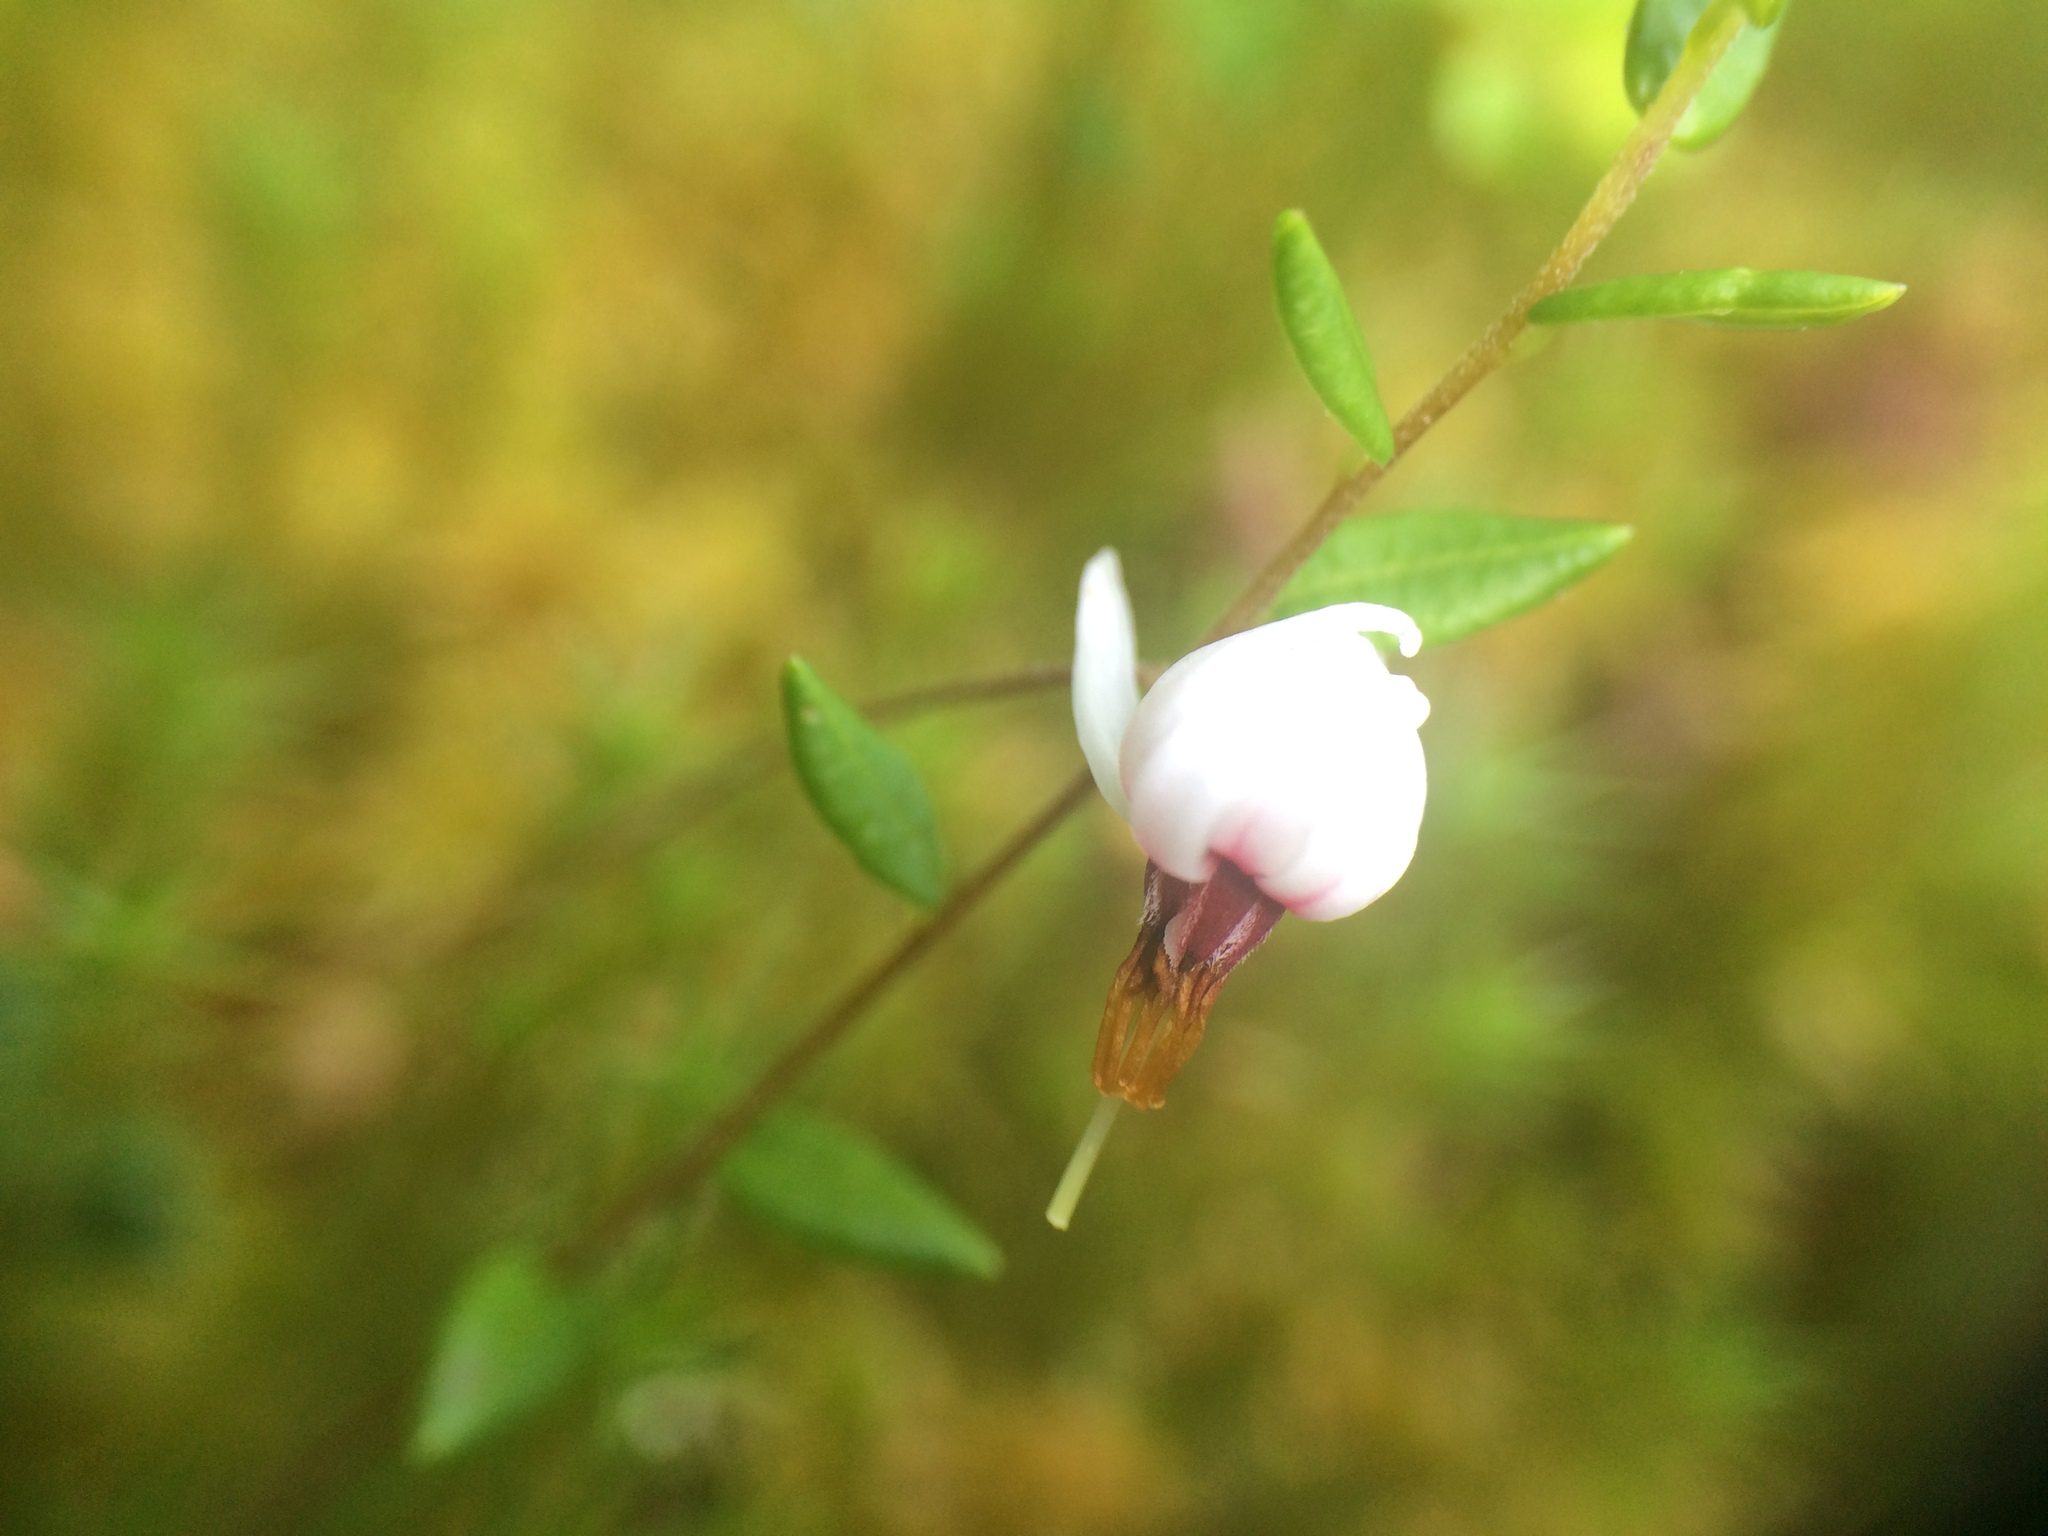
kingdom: Plantae
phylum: Tracheophyta
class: Magnoliopsida
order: Ericales
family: Ericaceae
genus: Vaccinium
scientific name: Vaccinium oxycoccos
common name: Cranberry
